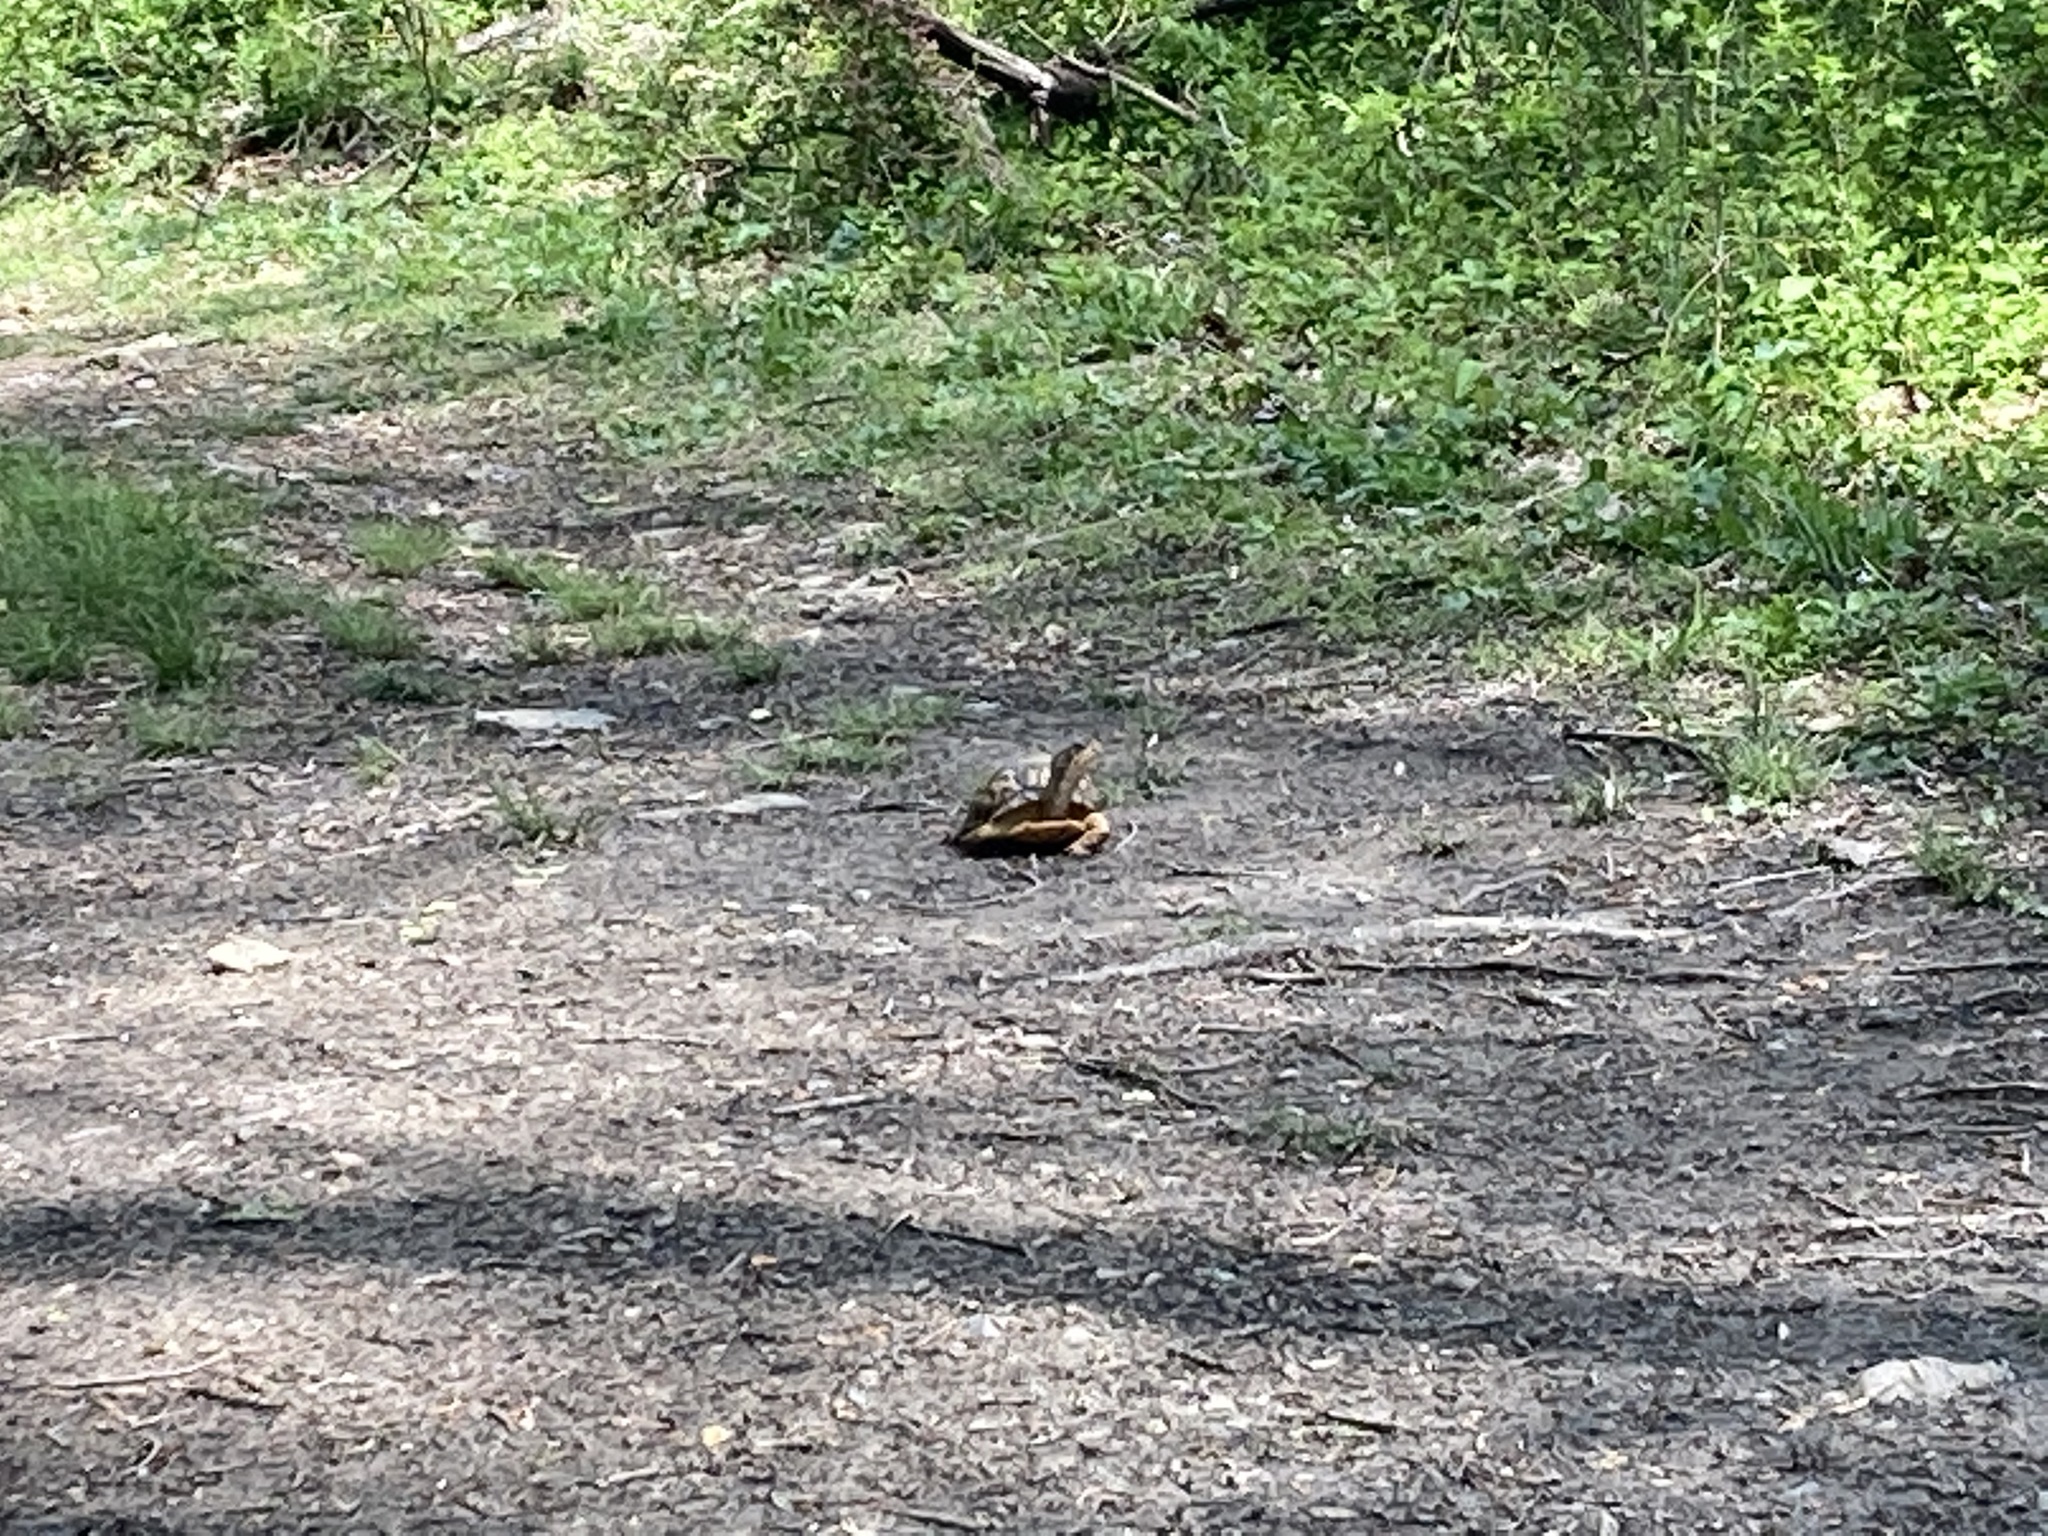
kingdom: Animalia
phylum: Chordata
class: Testudines
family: Emydidae
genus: Terrapene
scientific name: Terrapene carolina
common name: Common box turtle
